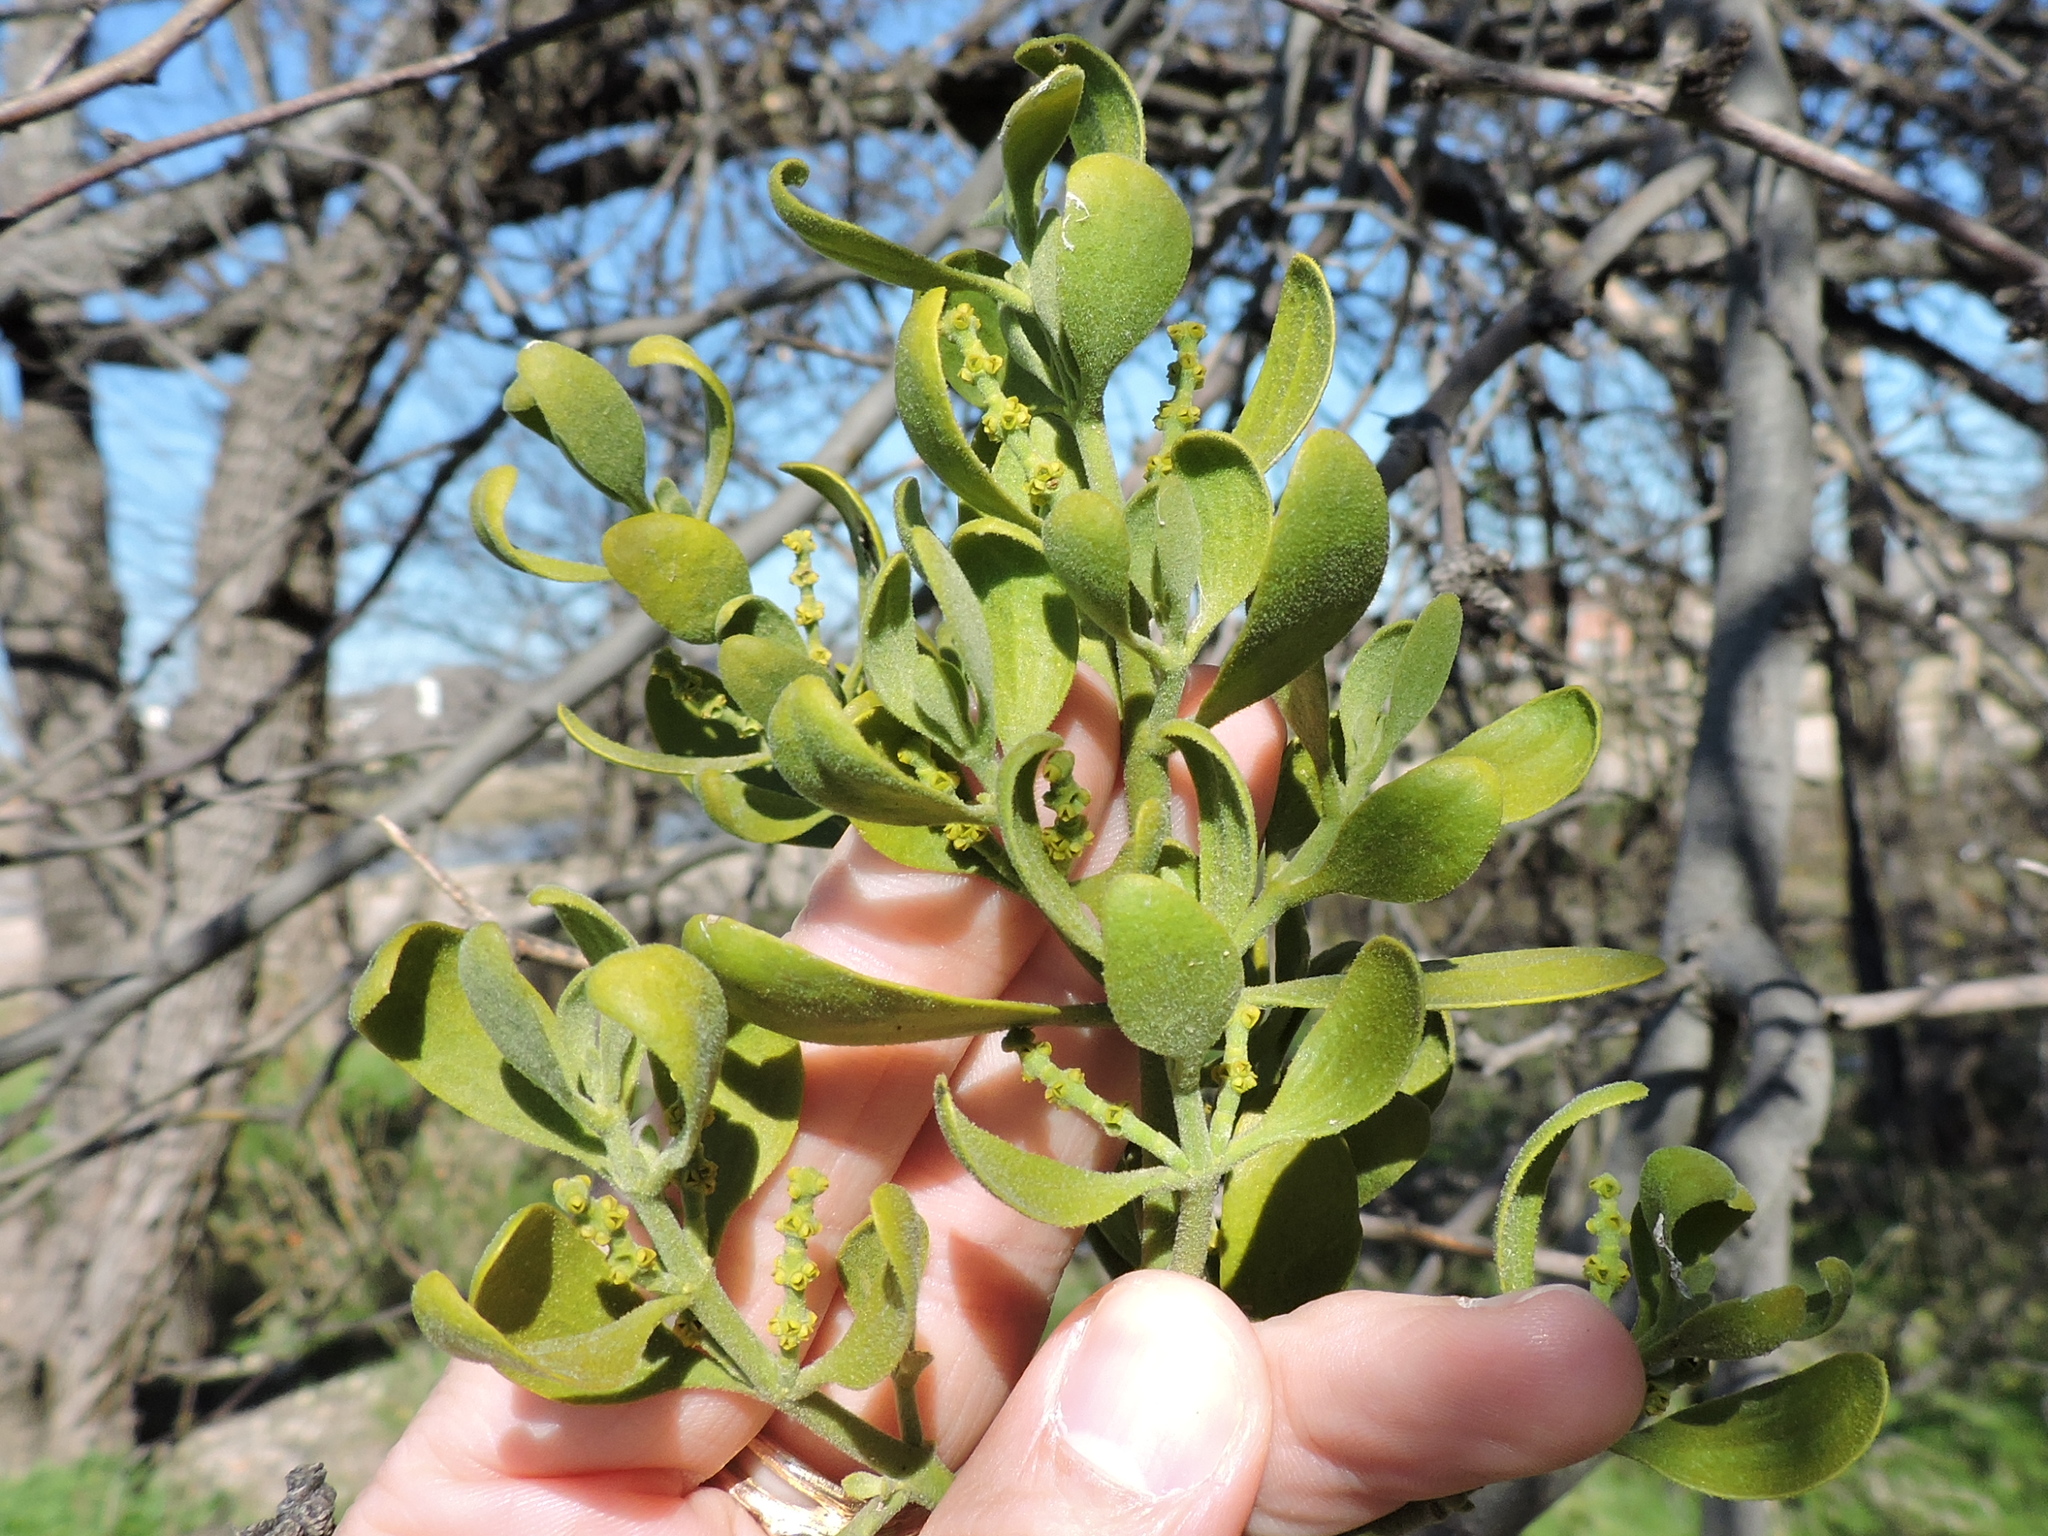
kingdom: Plantae
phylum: Tracheophyta
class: Magnoliopsida
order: Santalales
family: Viscaceae
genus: Phoradendron
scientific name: Phoradendron leucarpum
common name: Pacific mistletoe
